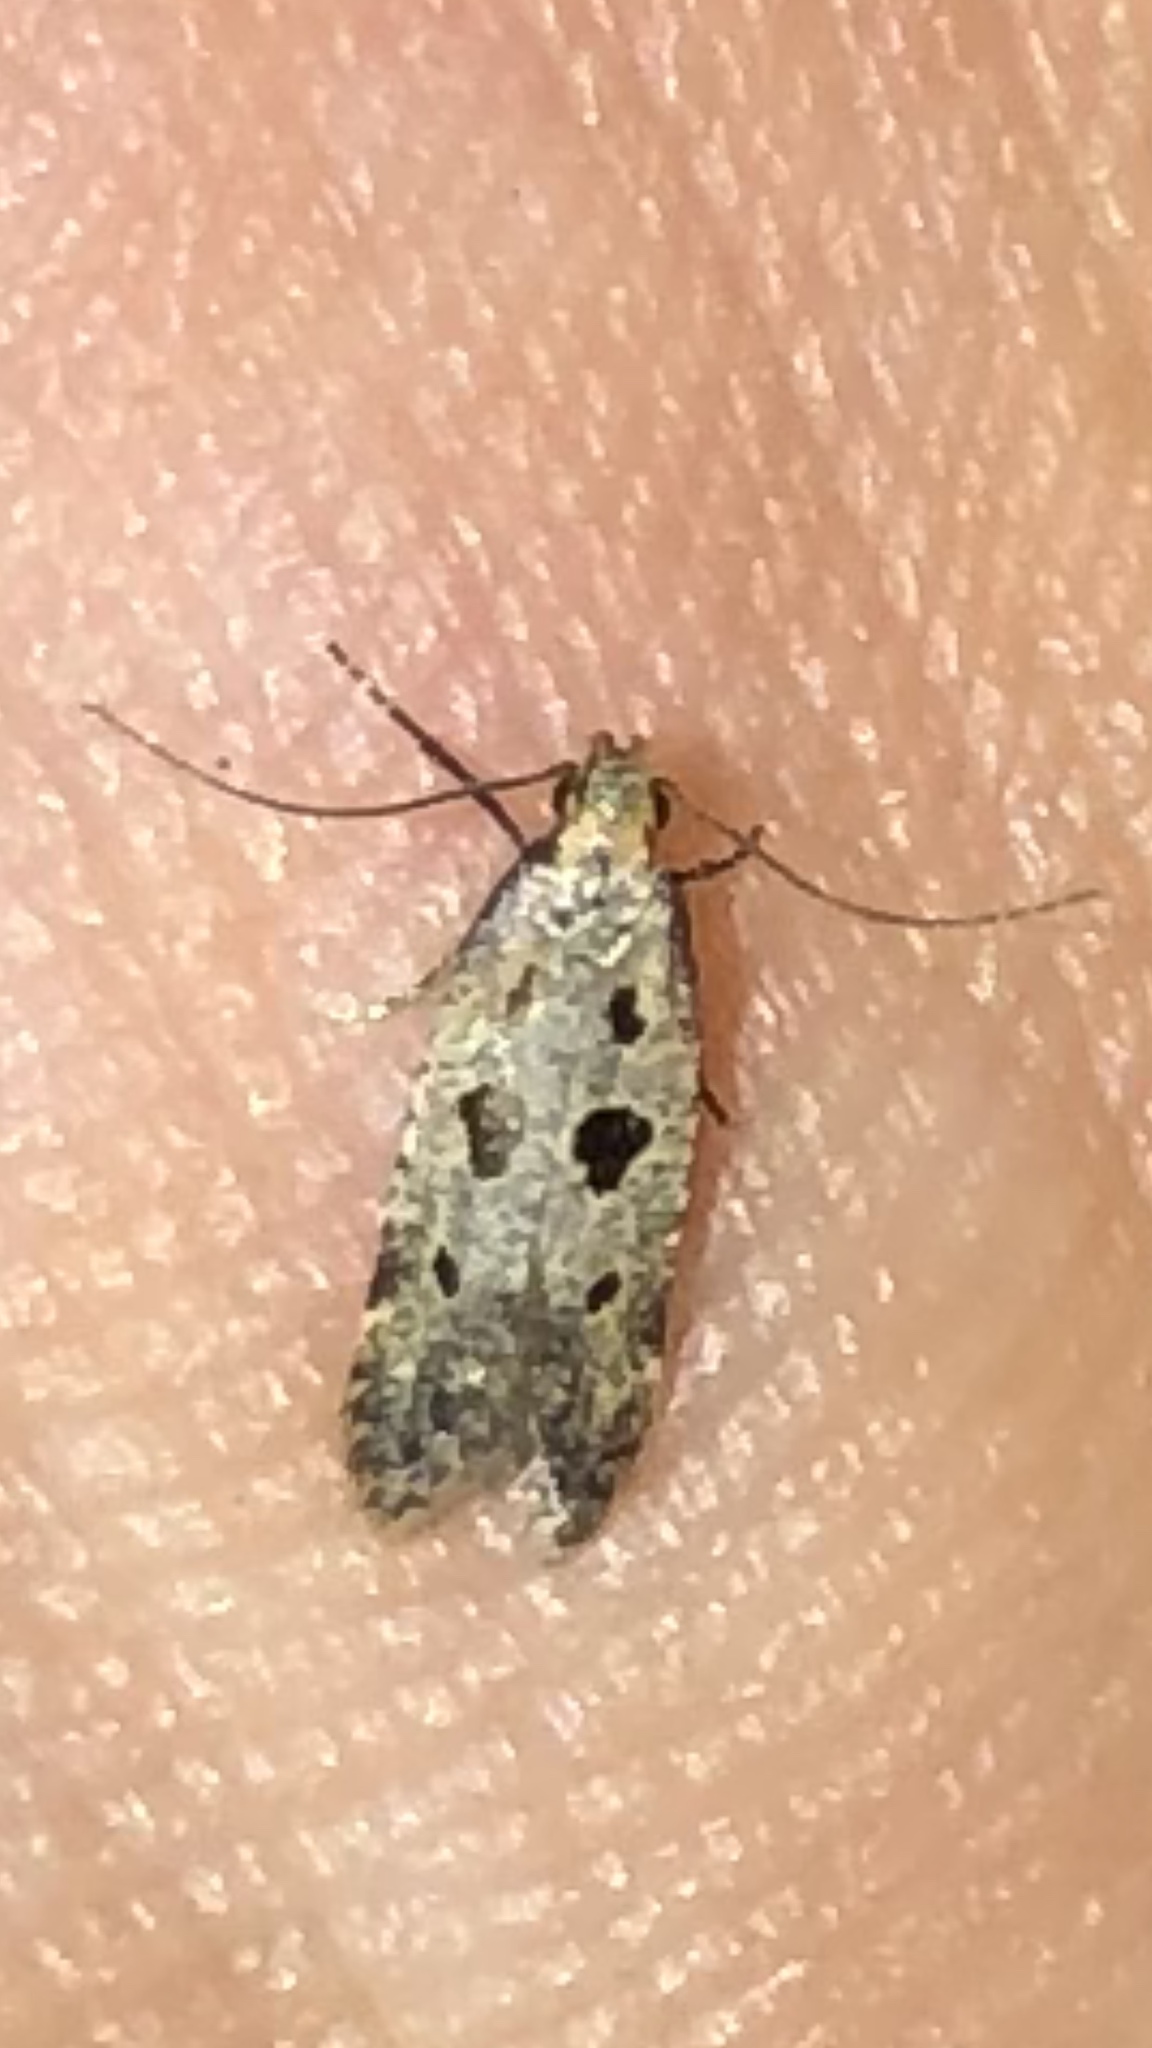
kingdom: Animalia
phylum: Arthropoda
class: Insecta
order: Lepidoptera
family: Gelechiidae
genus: Deltophora
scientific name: Deltophora sella
